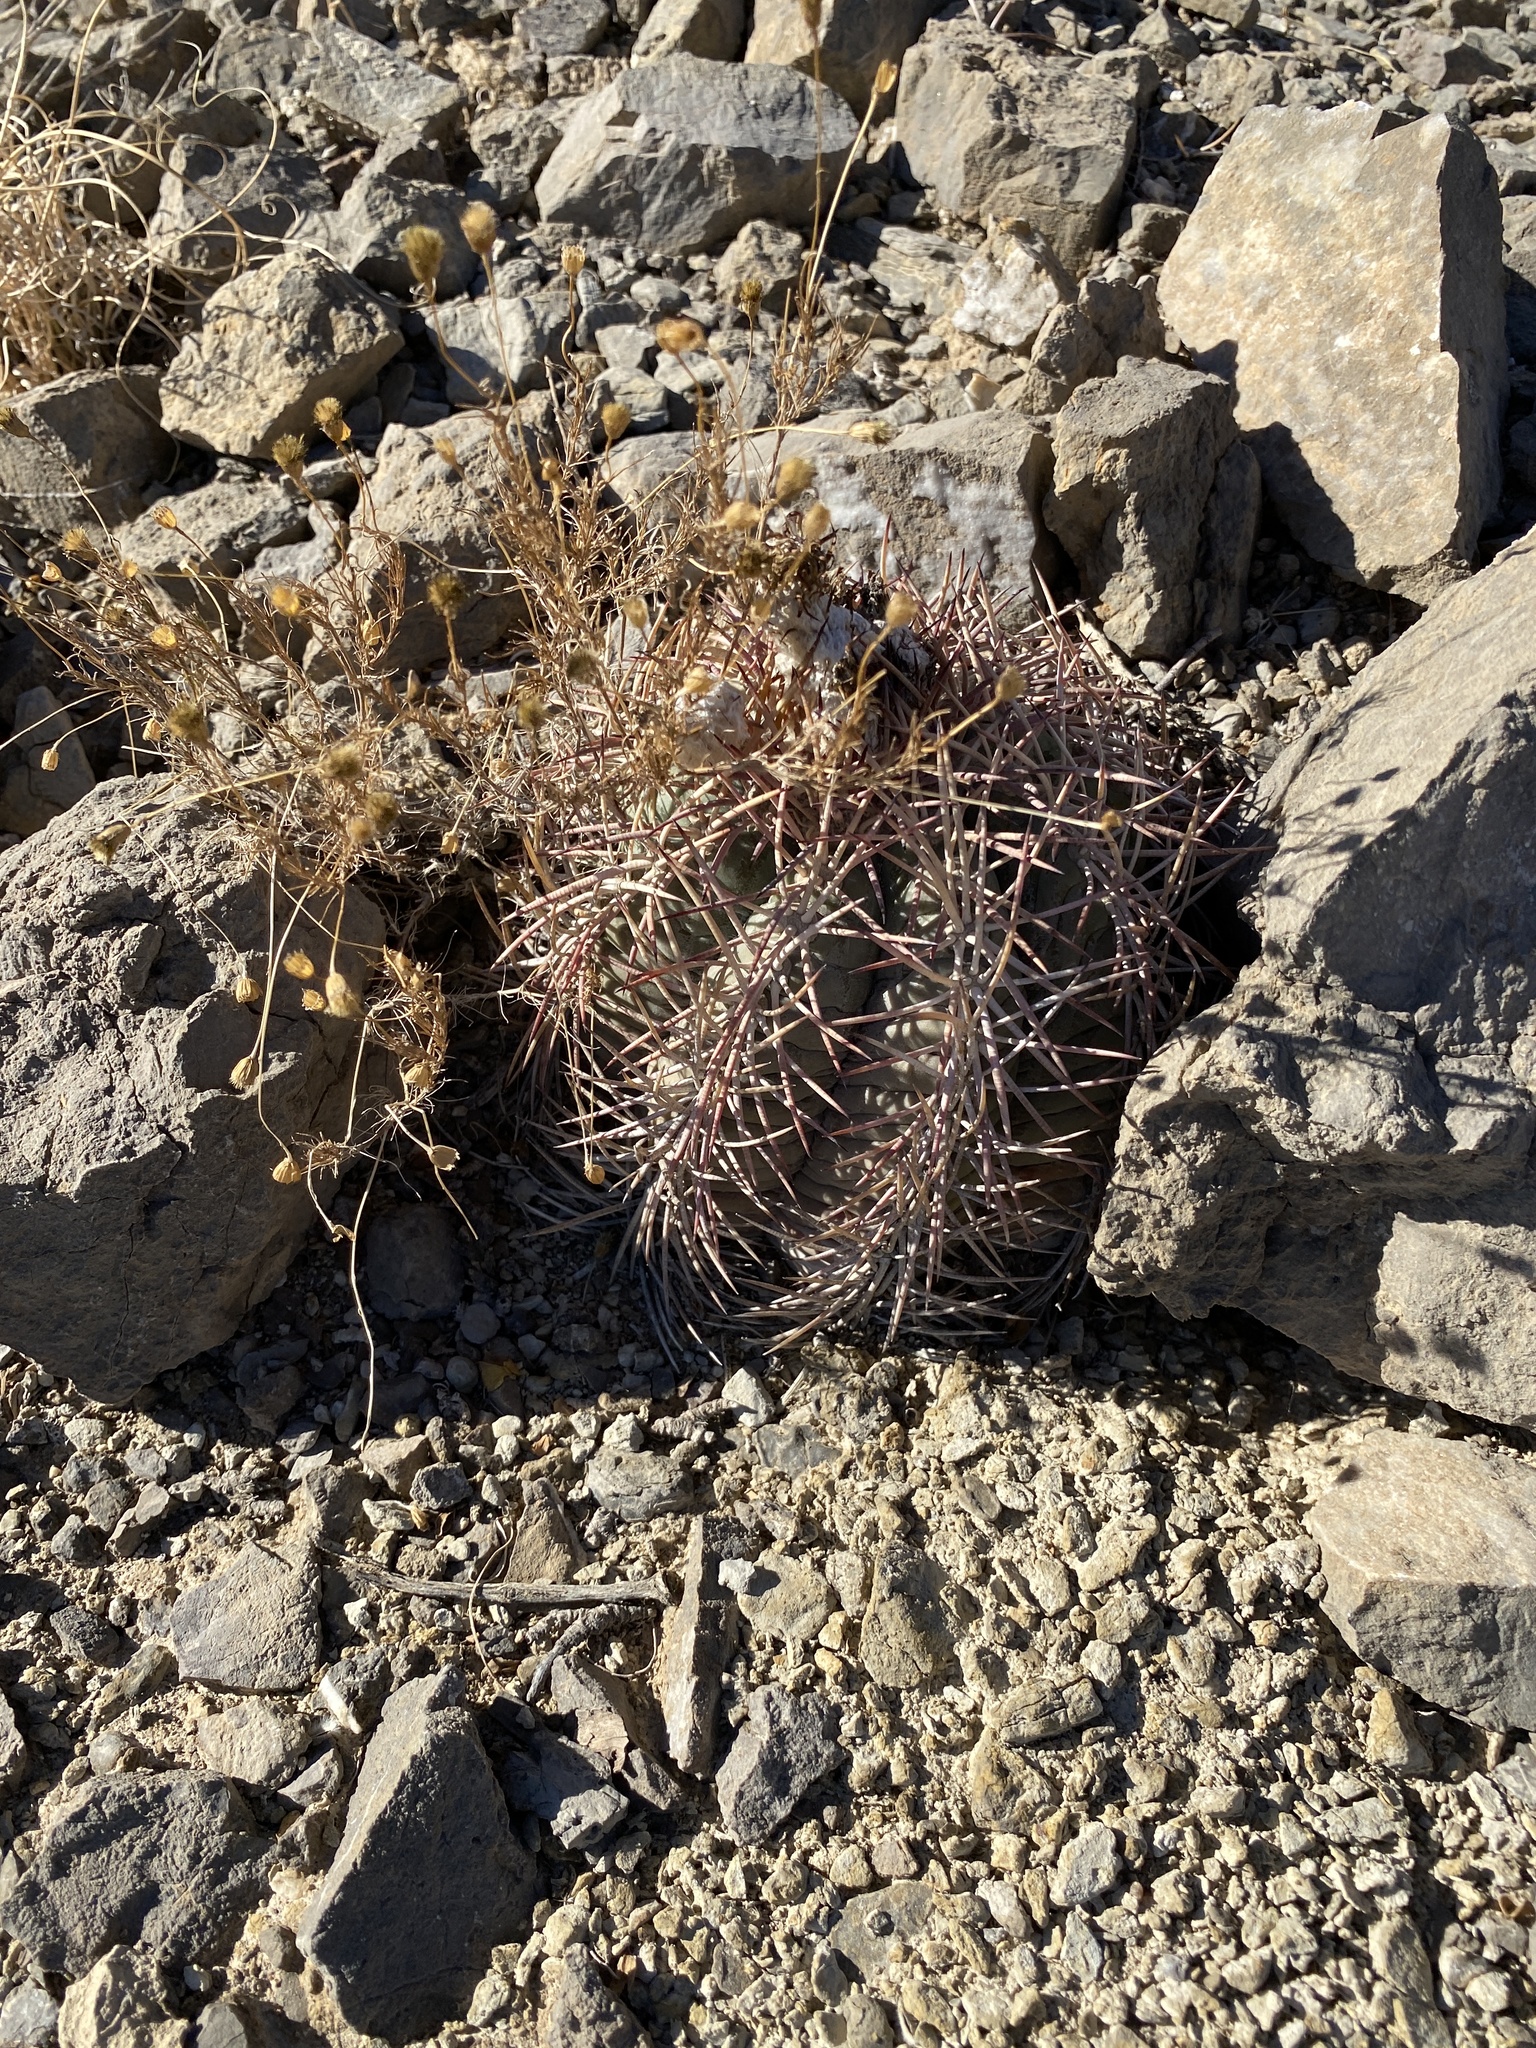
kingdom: Plantae
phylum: Tracheophyta
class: Magnoliopsida
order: Caryophyllales
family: Cactaceae
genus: Echinocactus
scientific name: Echinocactus horizonthalonius
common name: Devilshead
